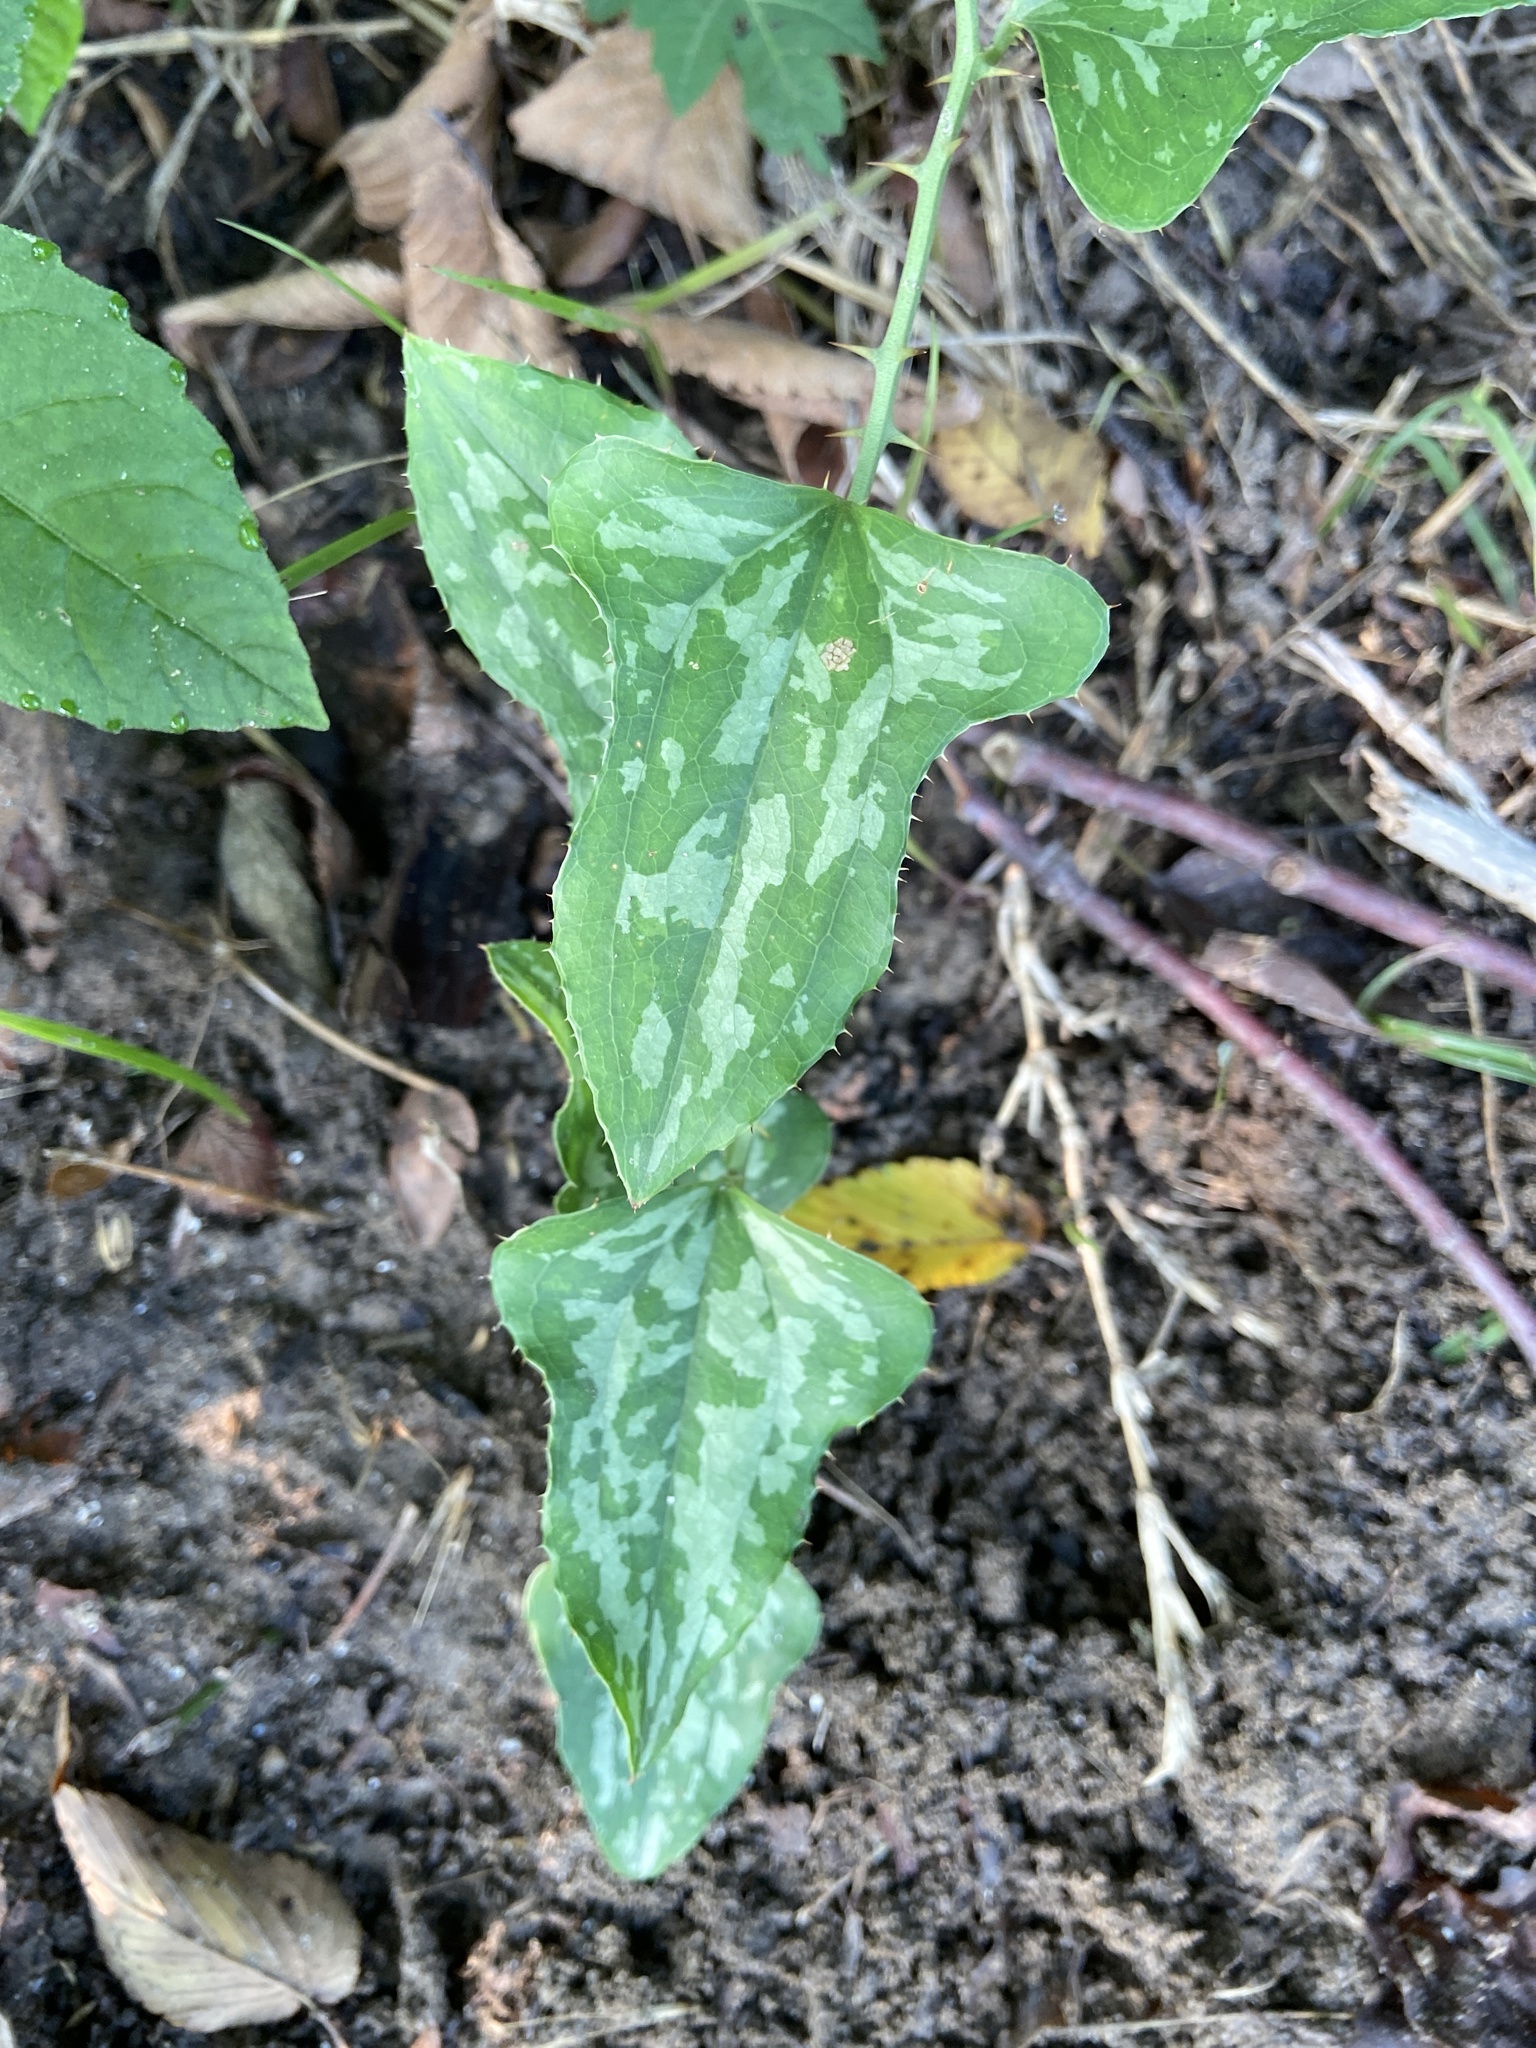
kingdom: Plantae
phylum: Tracheophyta
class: Liliopsida
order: Liliales
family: Smilacaceae
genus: Smilax
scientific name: Smilax bona-nox
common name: Catbrier
